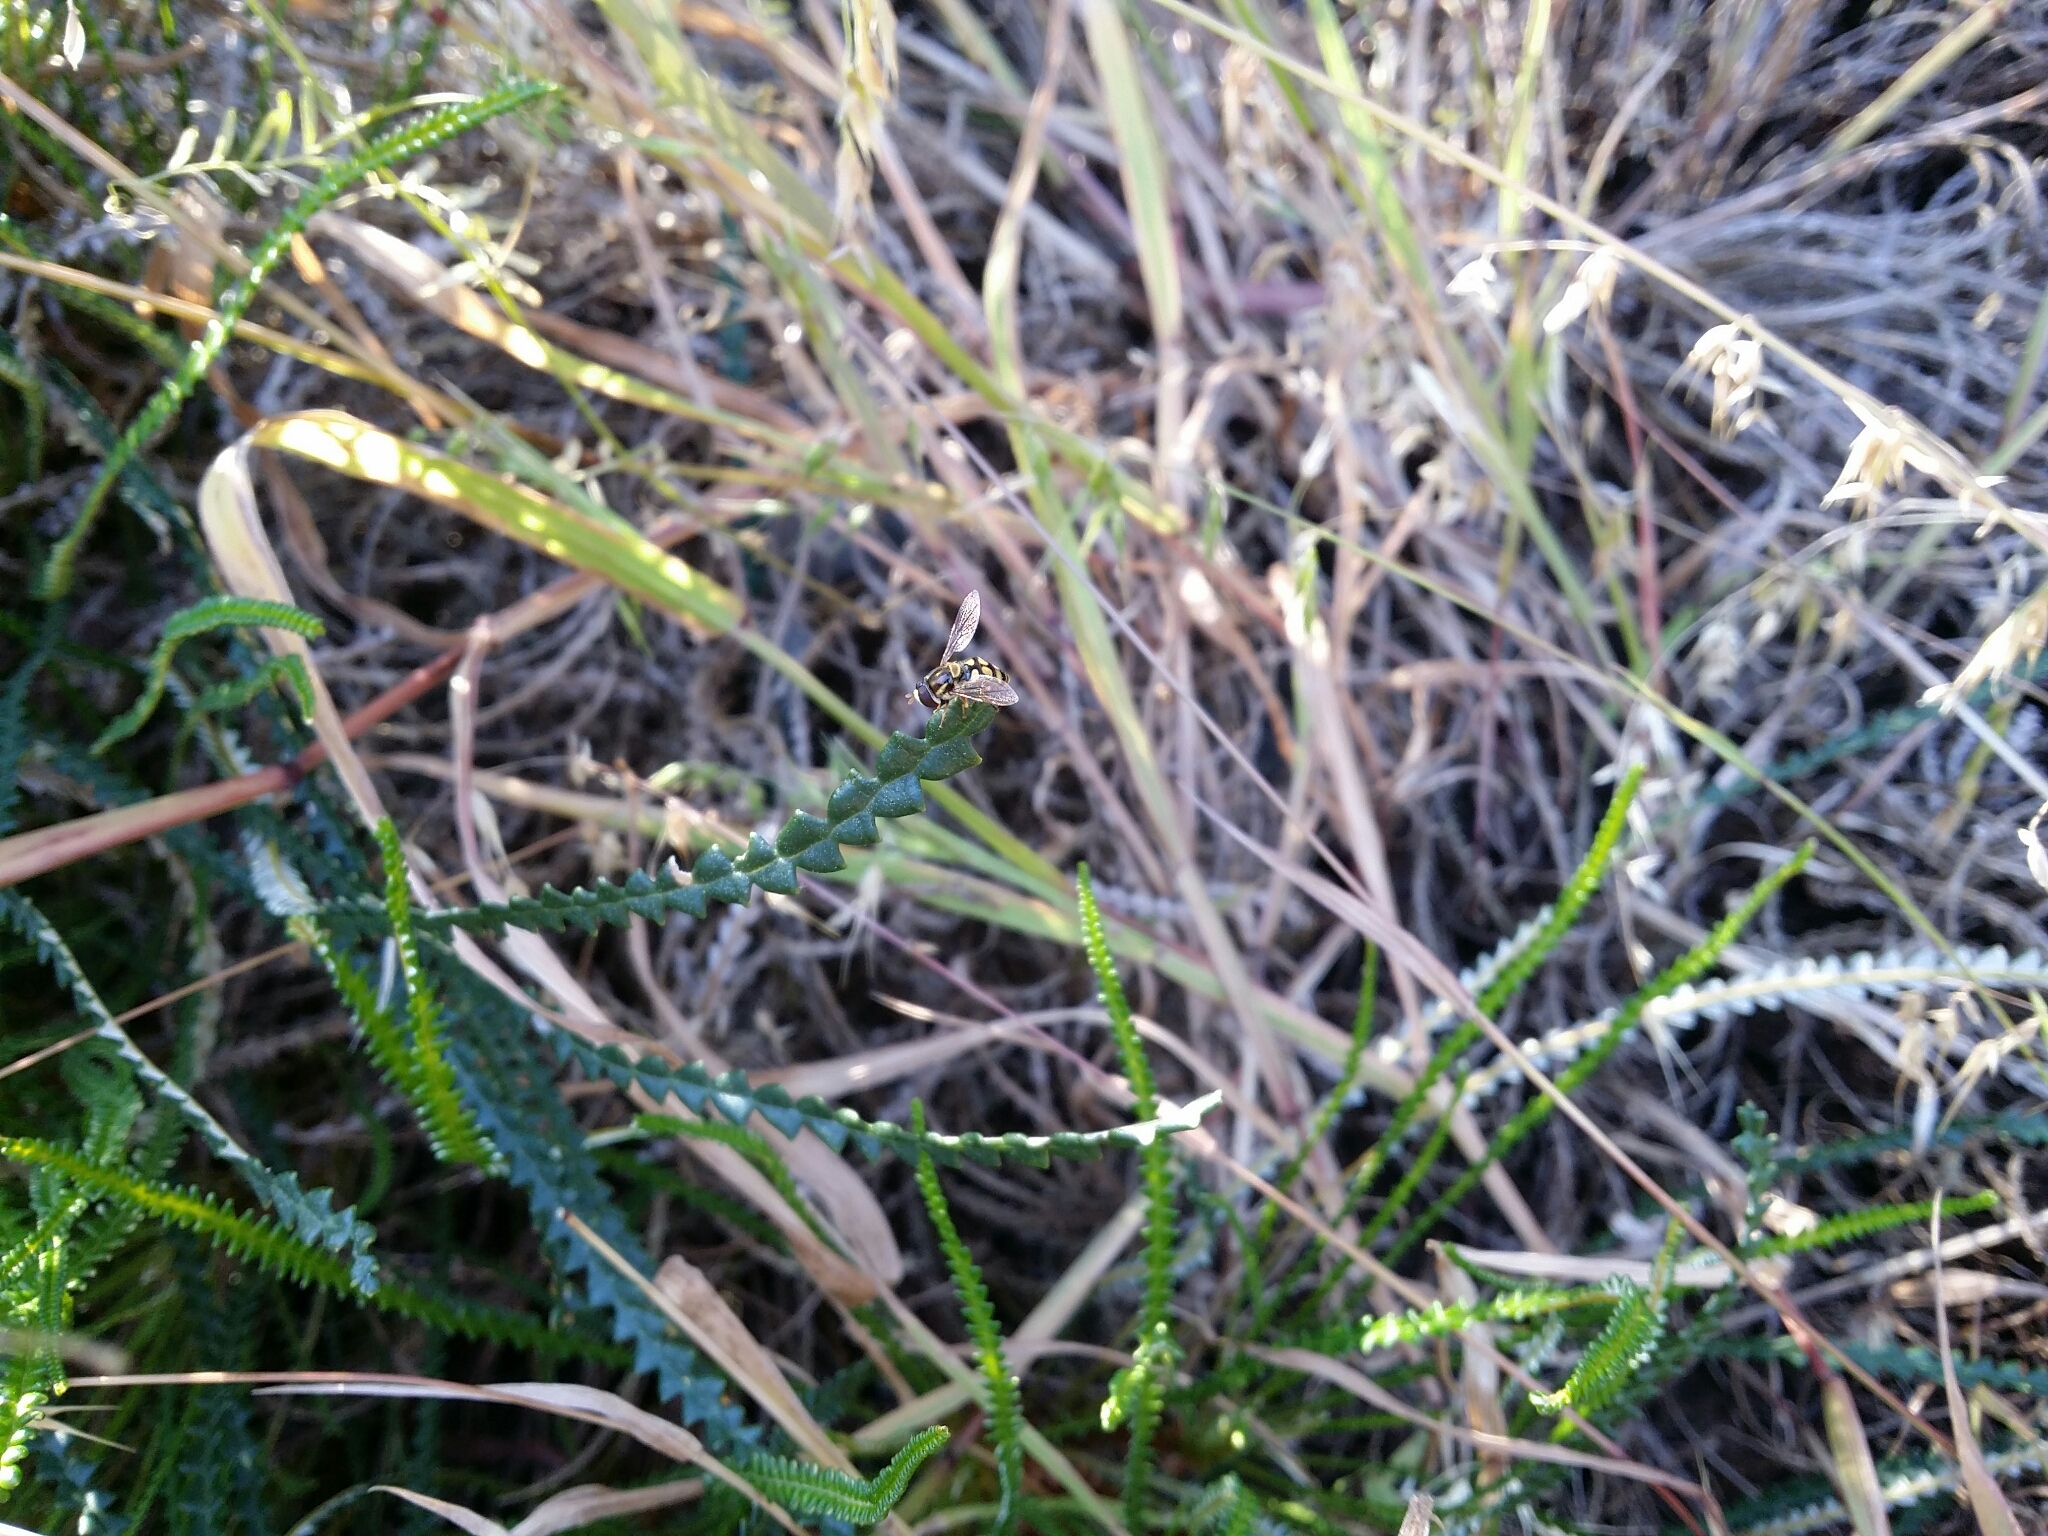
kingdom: Animalia
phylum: Arthropoda
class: Insecta
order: Diptera
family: Syrphidae
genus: Simosyrphus
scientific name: Simosyrphus grandicornis
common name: Hoverfly
